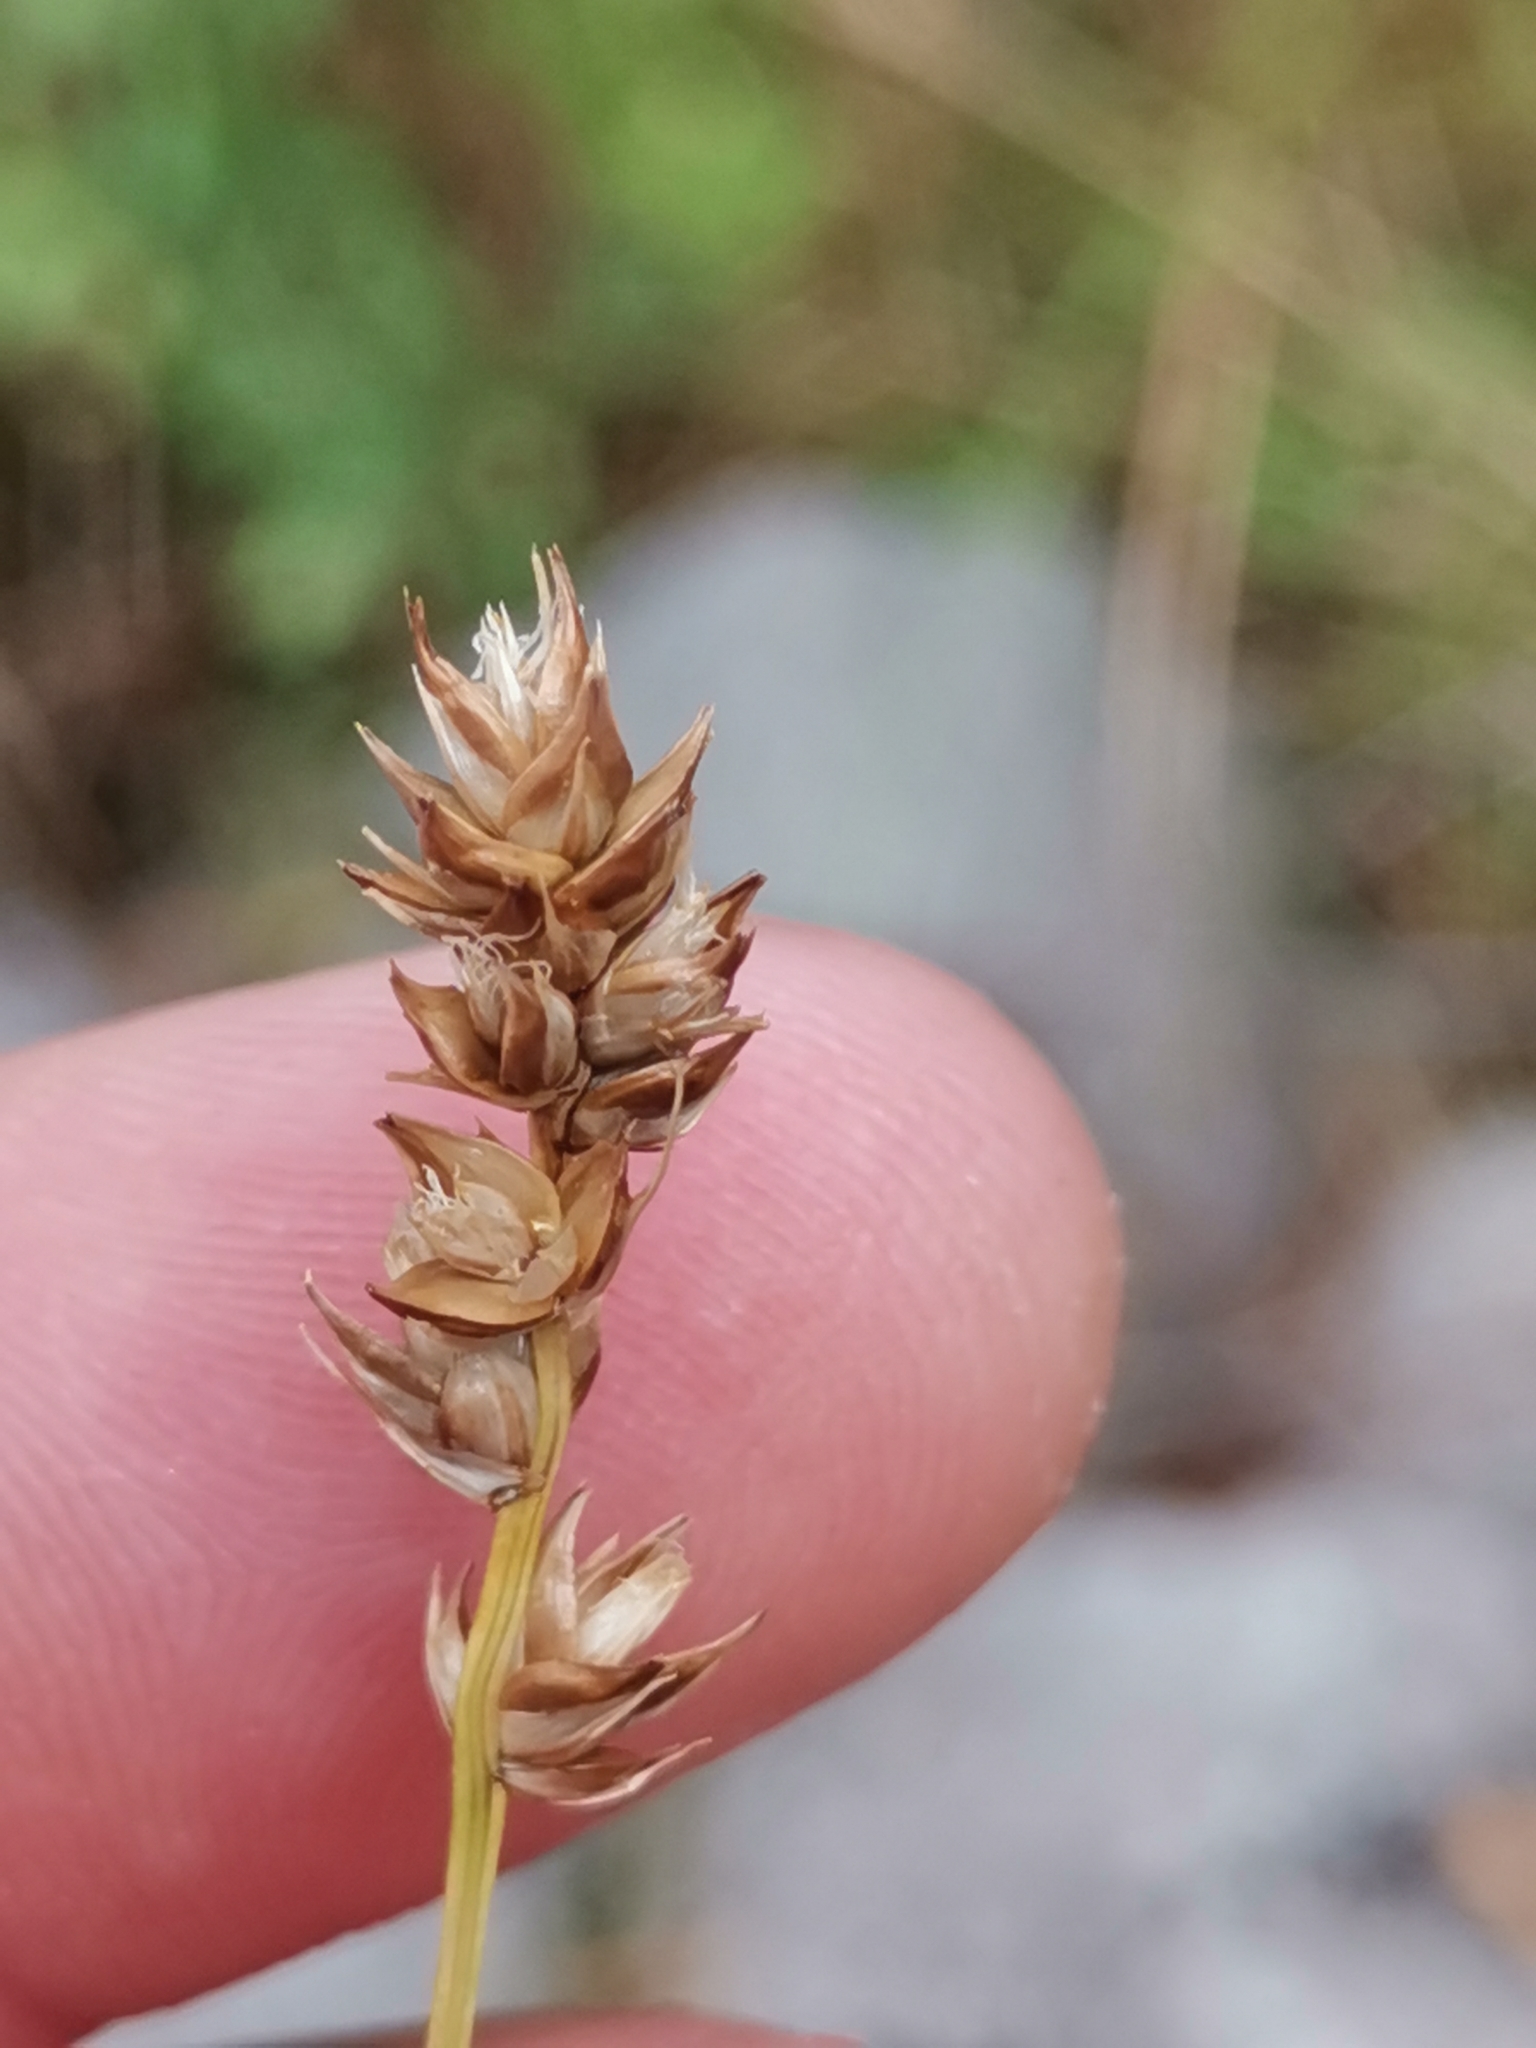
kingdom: Plantae
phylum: Tracheophyta
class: Liliopsida
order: Poales
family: Cyperaceae
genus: Carex
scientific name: Carex divulsa
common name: Grassland sedge
